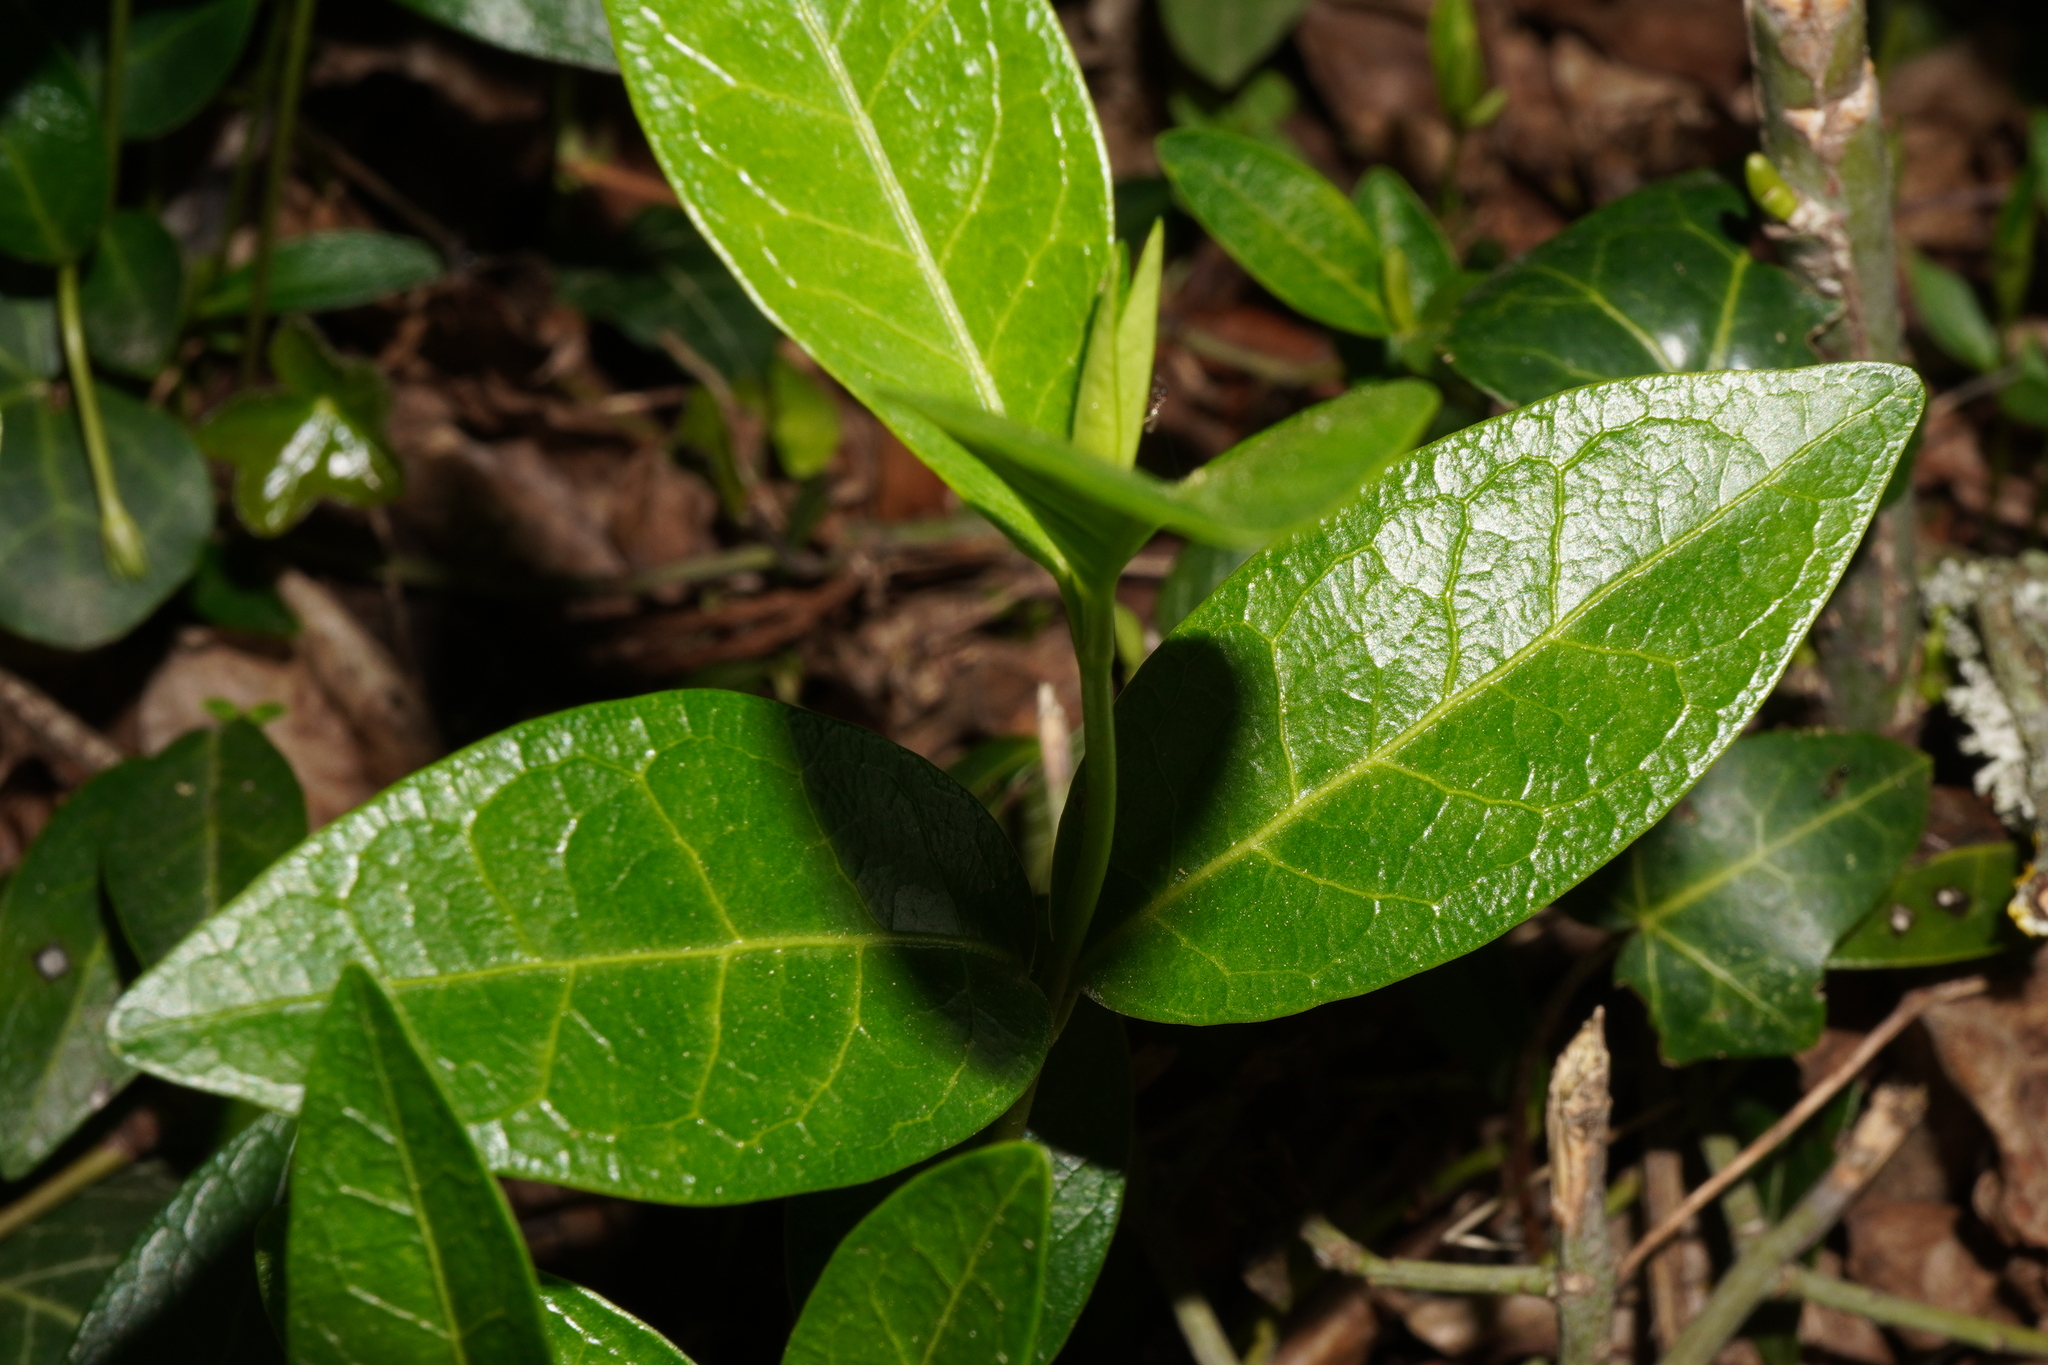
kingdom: Plantae
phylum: Tracheophyta
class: Magnoliopsida
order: Gentianales
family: Apocynaceae
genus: Vinca
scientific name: Vinca minor
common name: Lesser periwinkle
